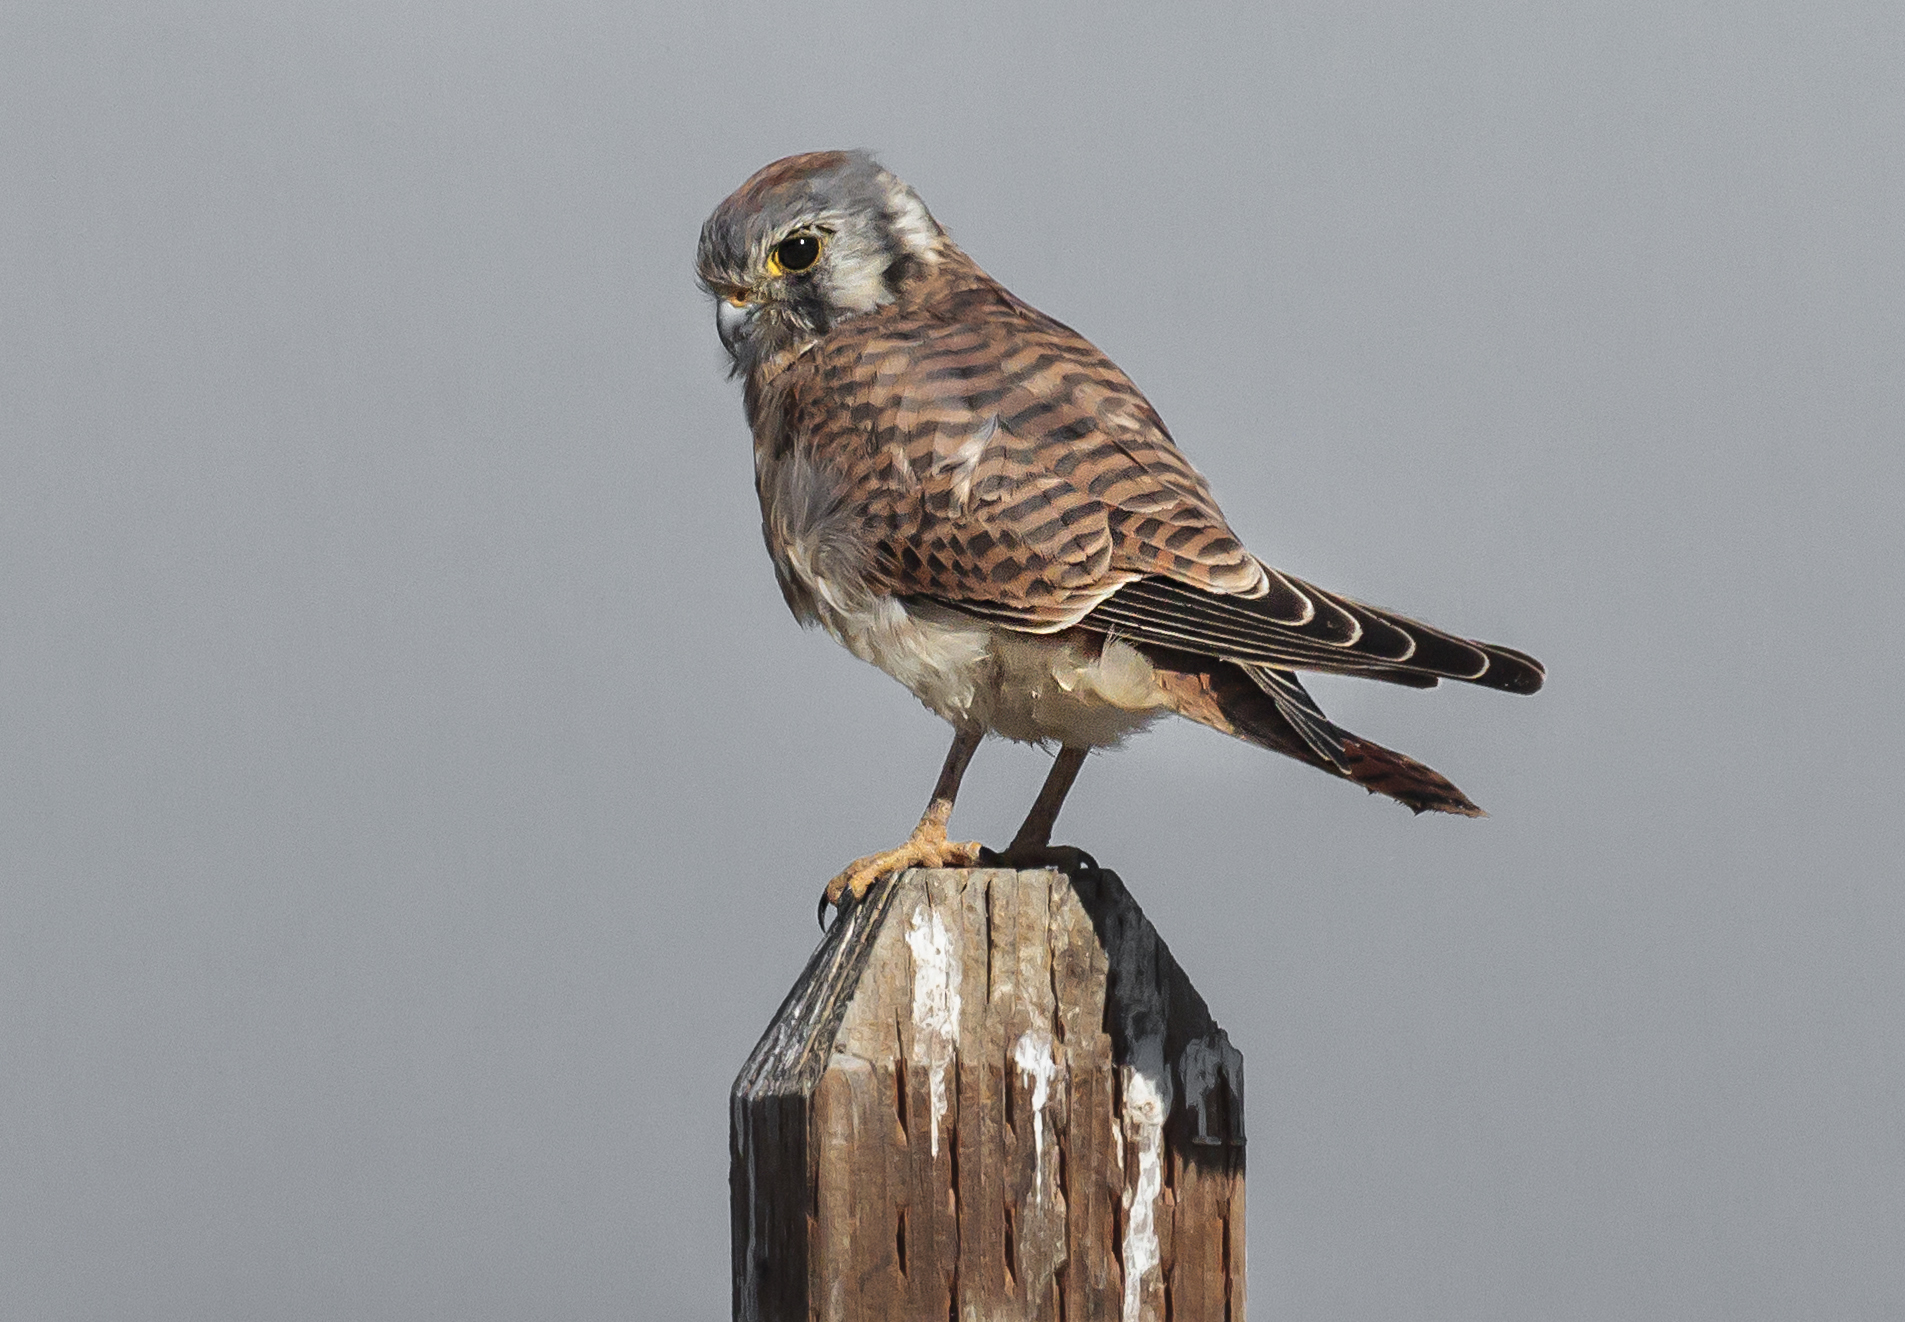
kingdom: Animalia
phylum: Chordata
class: Aves
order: Falconiformes
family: Falconidae
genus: Falco
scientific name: Falco sparverius
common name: American kestrel
